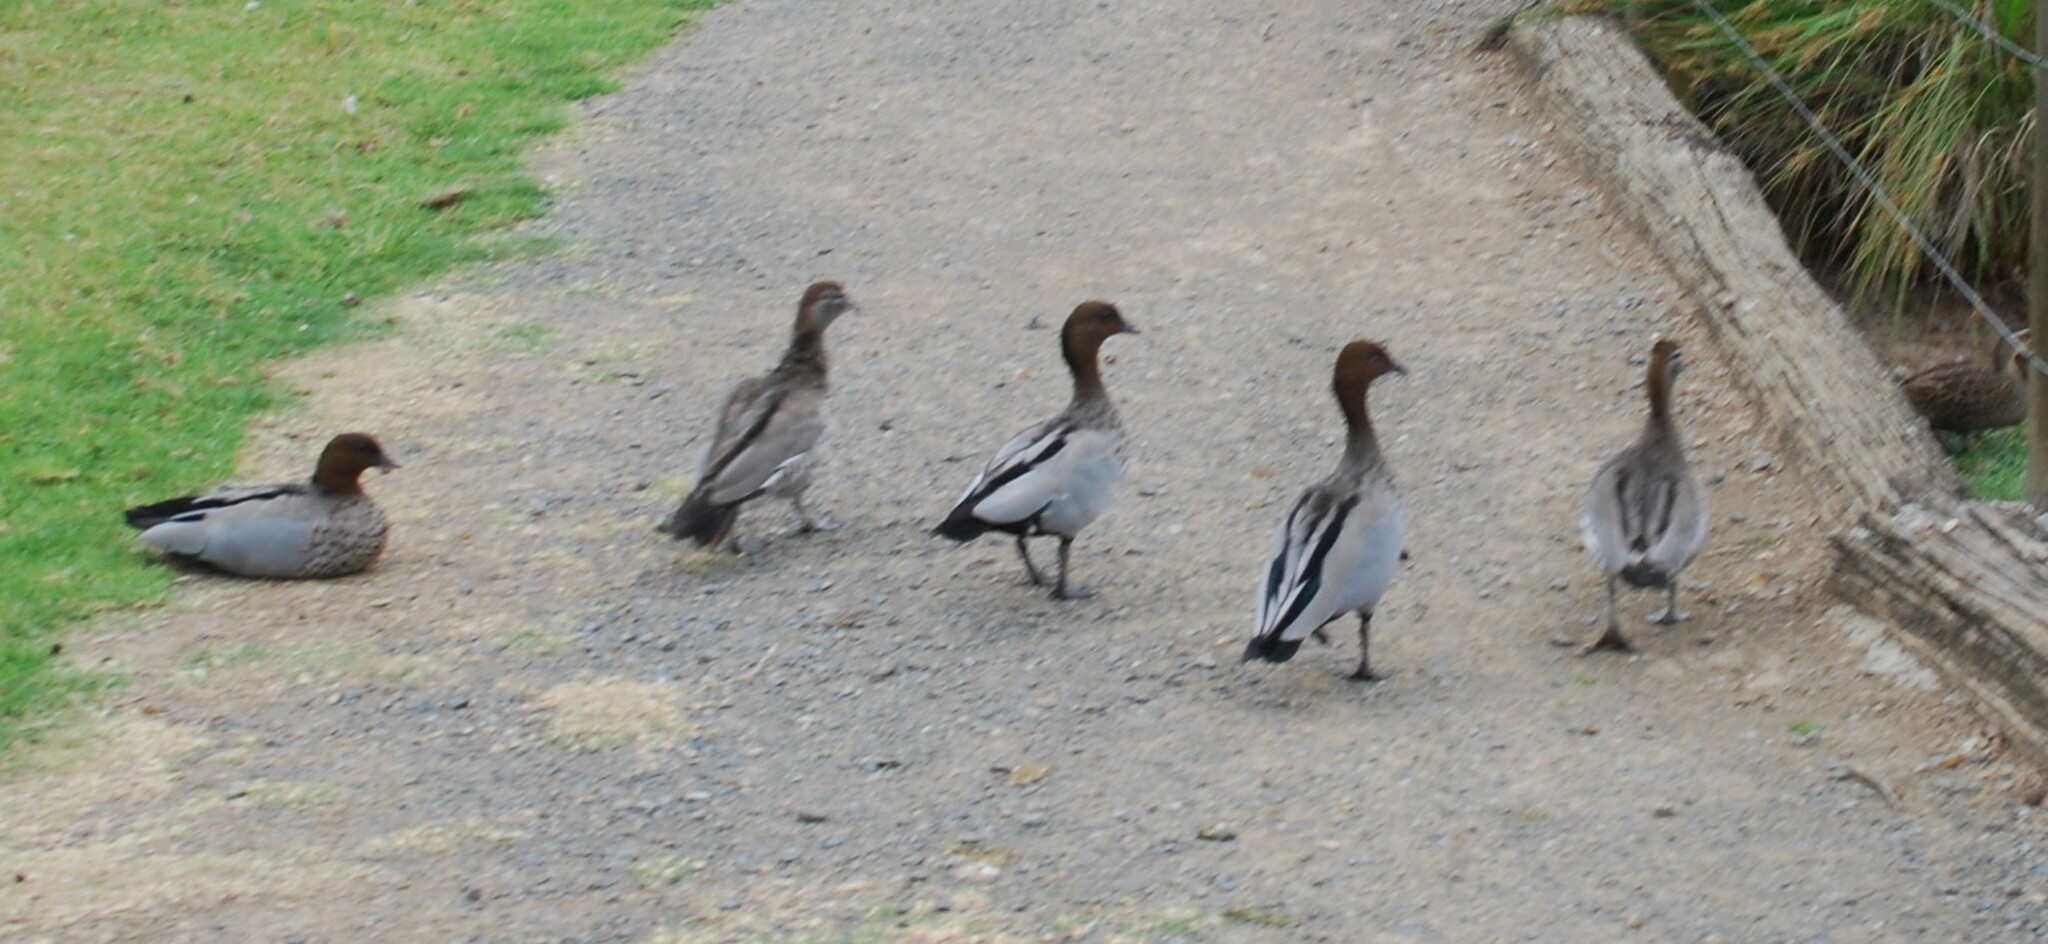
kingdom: Animalia
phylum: Chordata
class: Aves
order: Anseriformes
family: Anatidae
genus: Chenonetta
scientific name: Chenonetta jubata
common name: Maned duck
